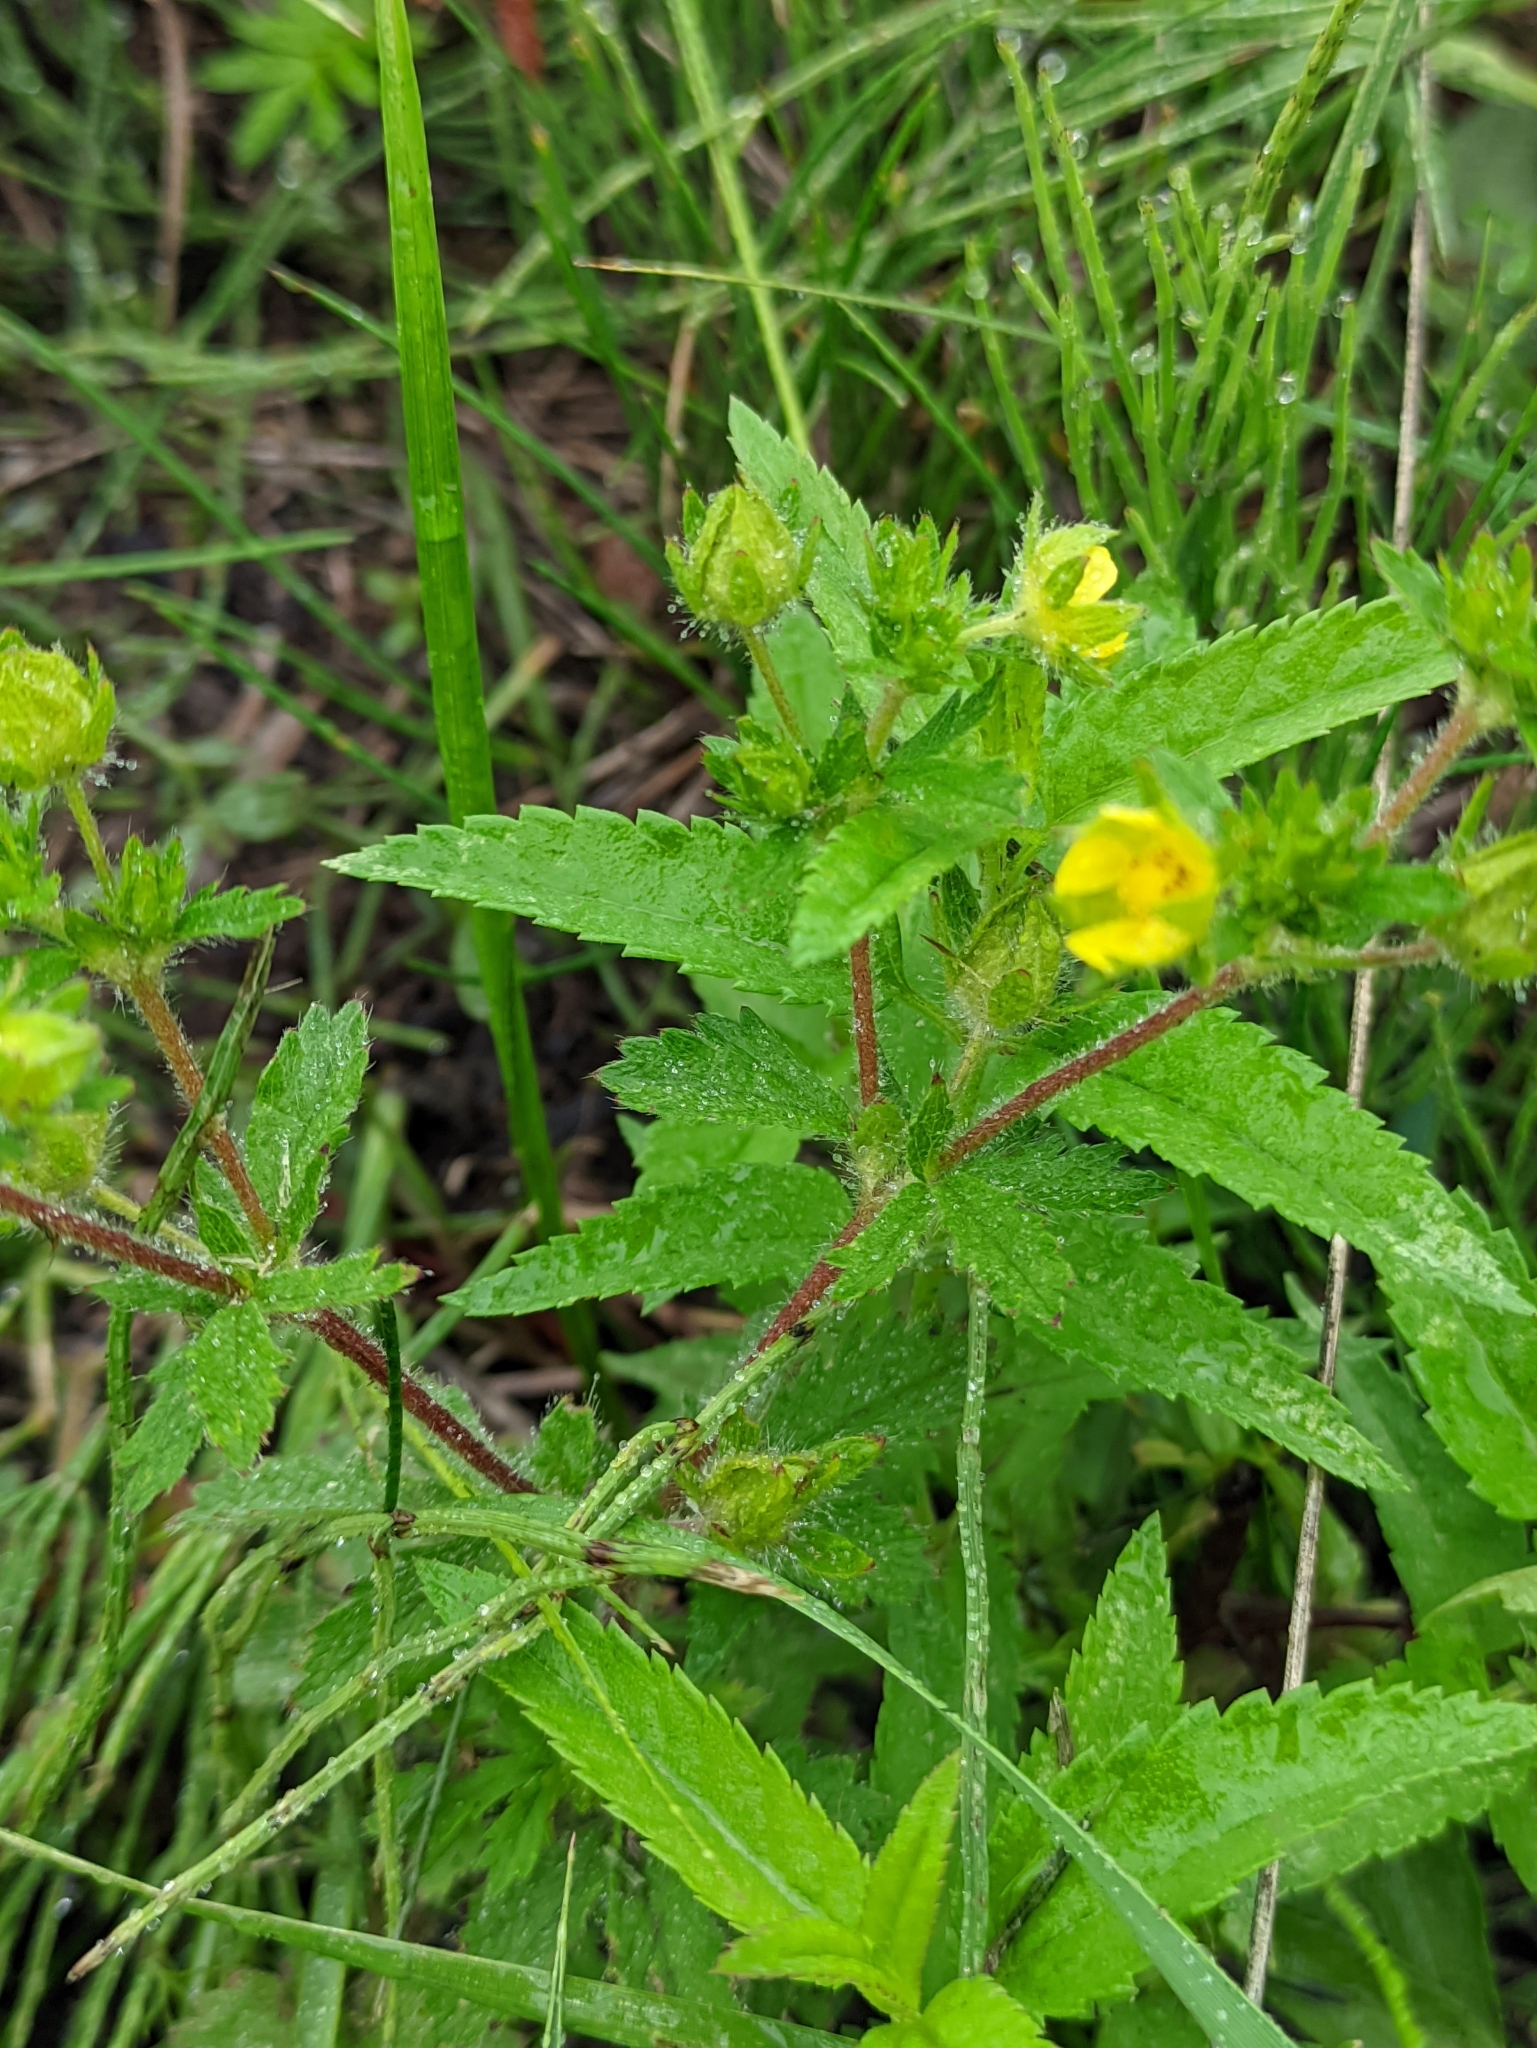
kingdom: Plantae
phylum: Tracheophyta
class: Magnoliopsida
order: Rosales
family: Rosaceae
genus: Potentilla
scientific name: Potentilla norvegica
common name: Ternate-leaved cinquefoil
